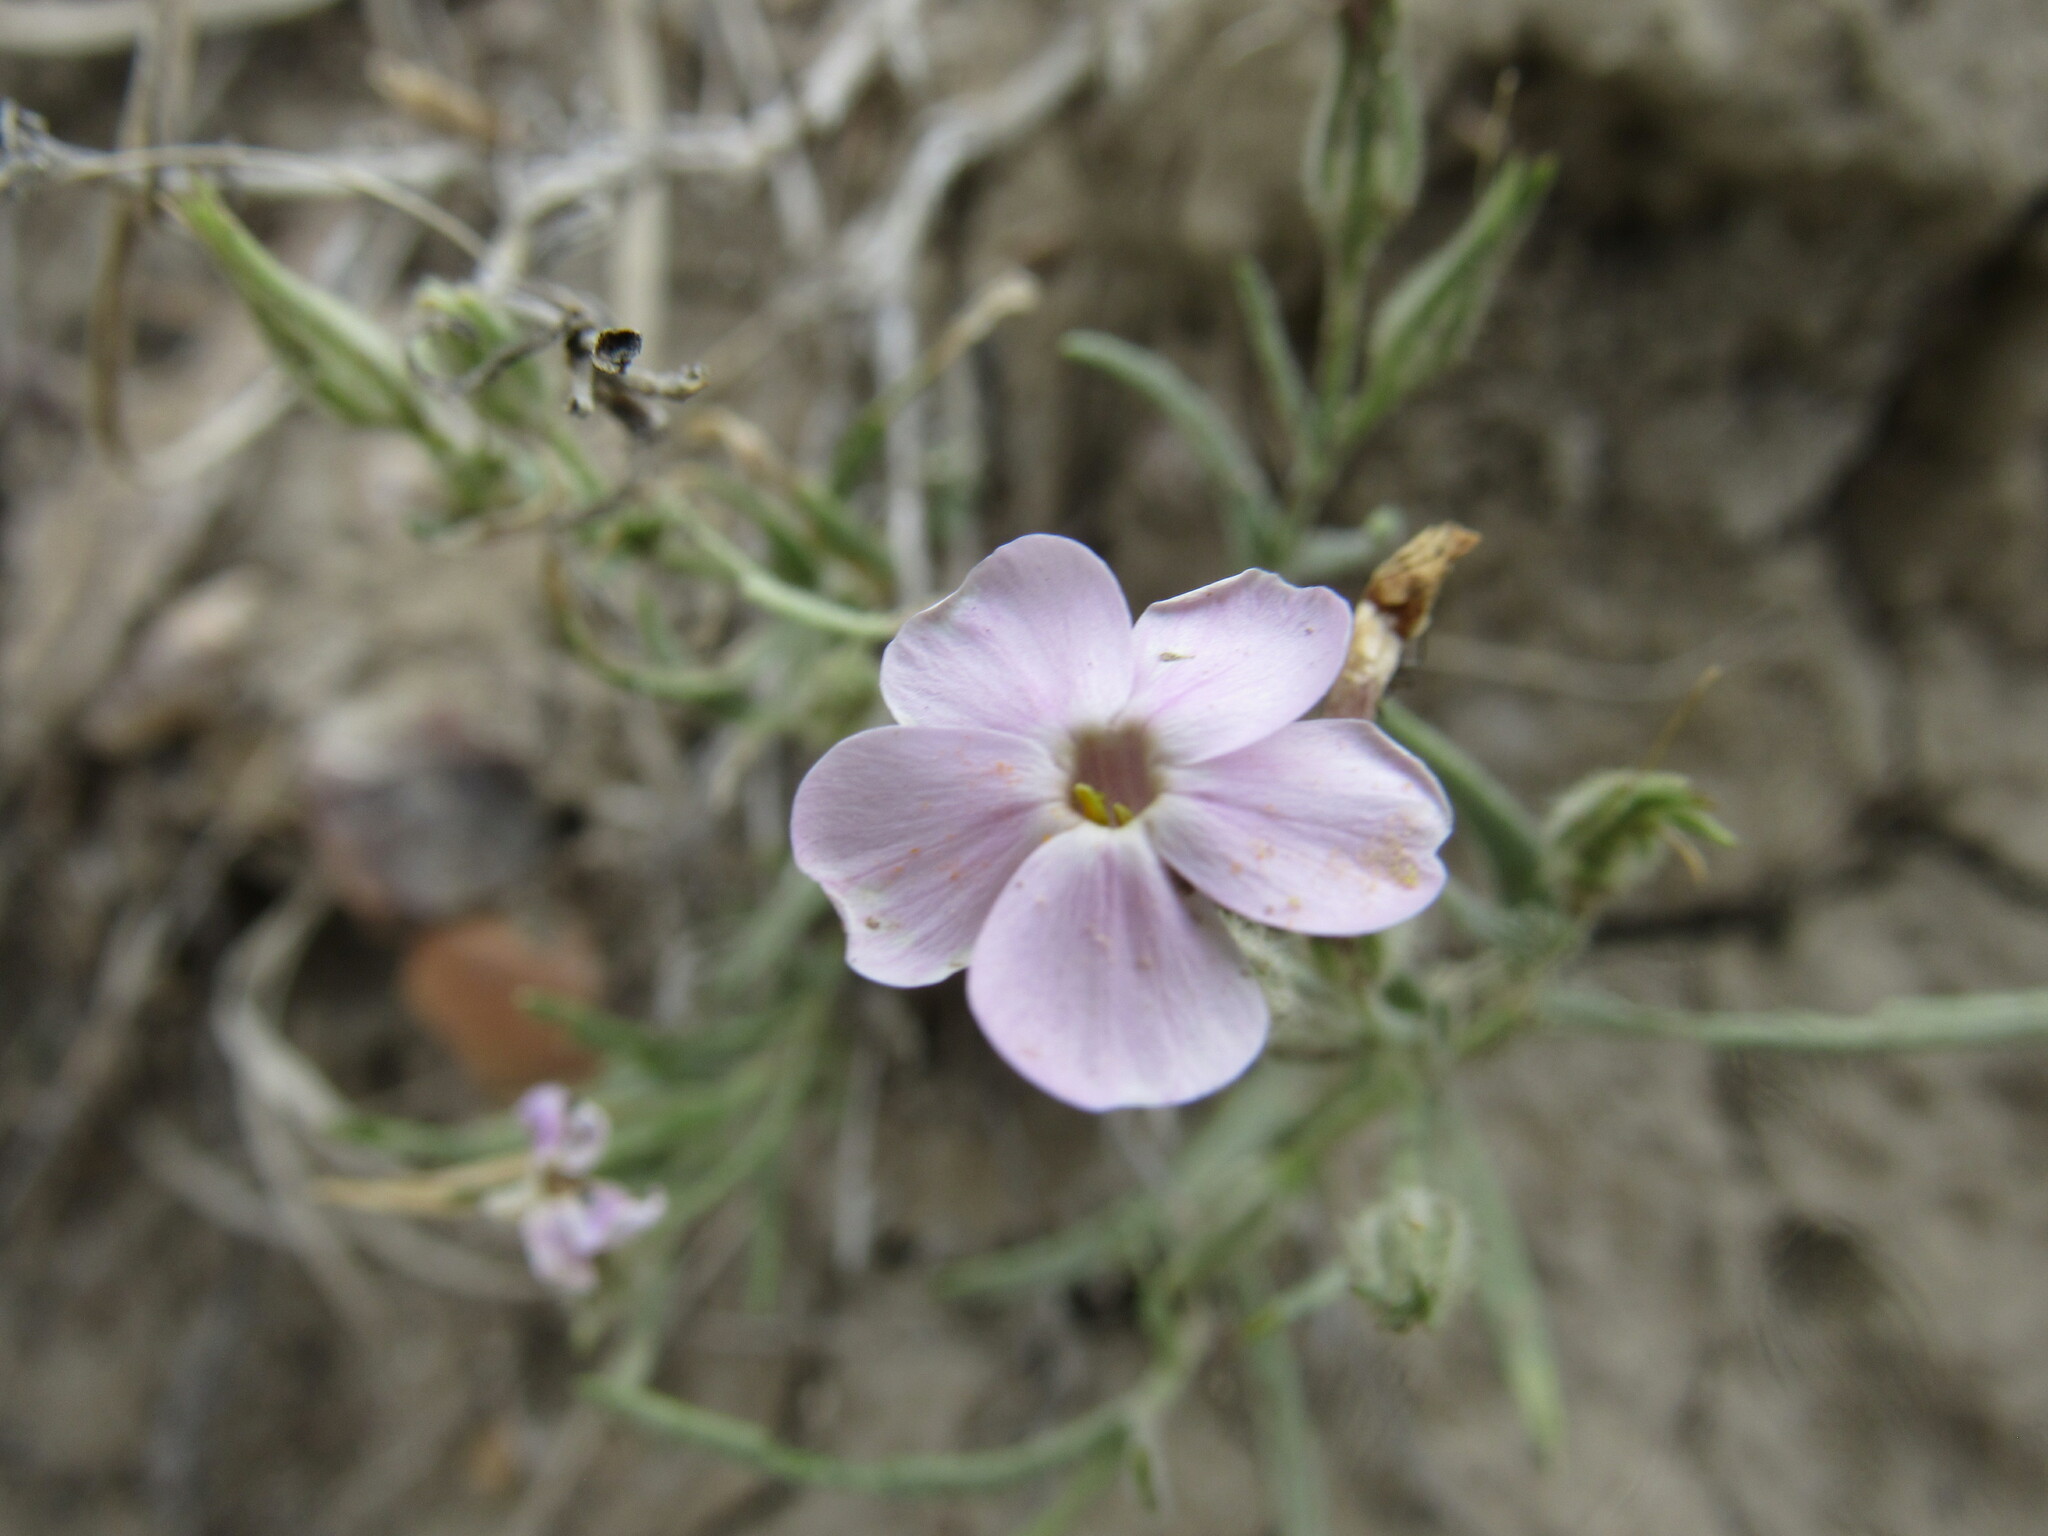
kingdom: Plantae
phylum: Tracheophyta
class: Magnoliopsida
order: Ericales
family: Polemoniaceae
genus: Phlox
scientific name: Phlox longifolia
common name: Longleaf phlox
